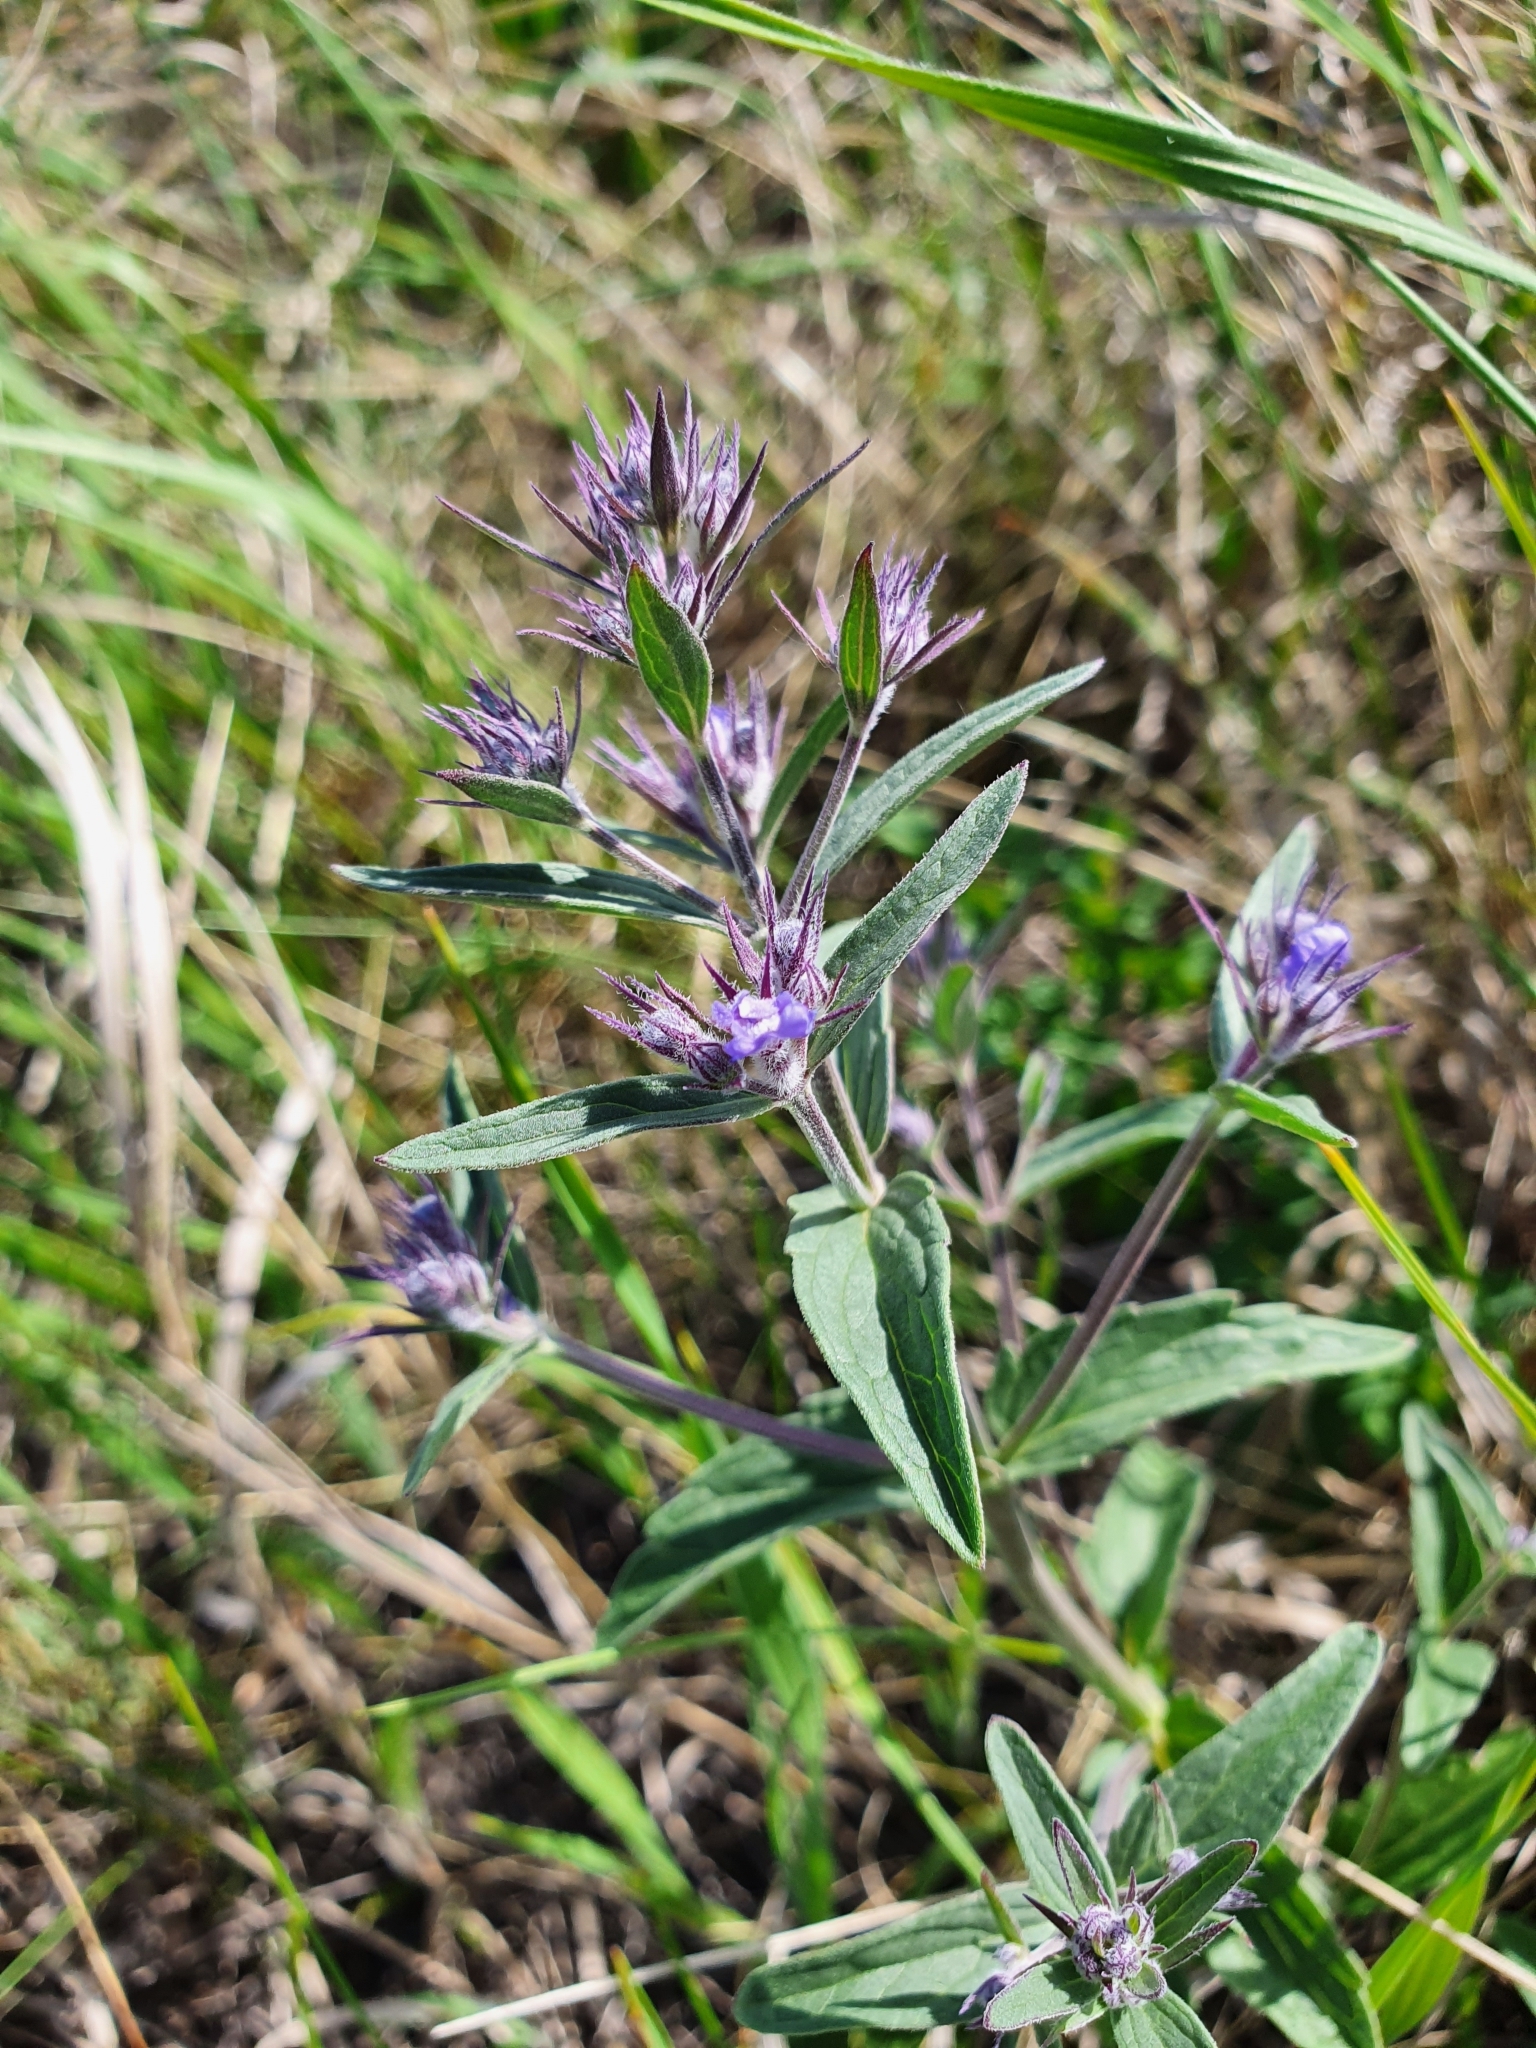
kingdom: Plantae
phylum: Tracheophyta
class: Magnoliopsida
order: Lamiales
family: Lamiaceae
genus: Nepeta
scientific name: Nepeta ucranica
